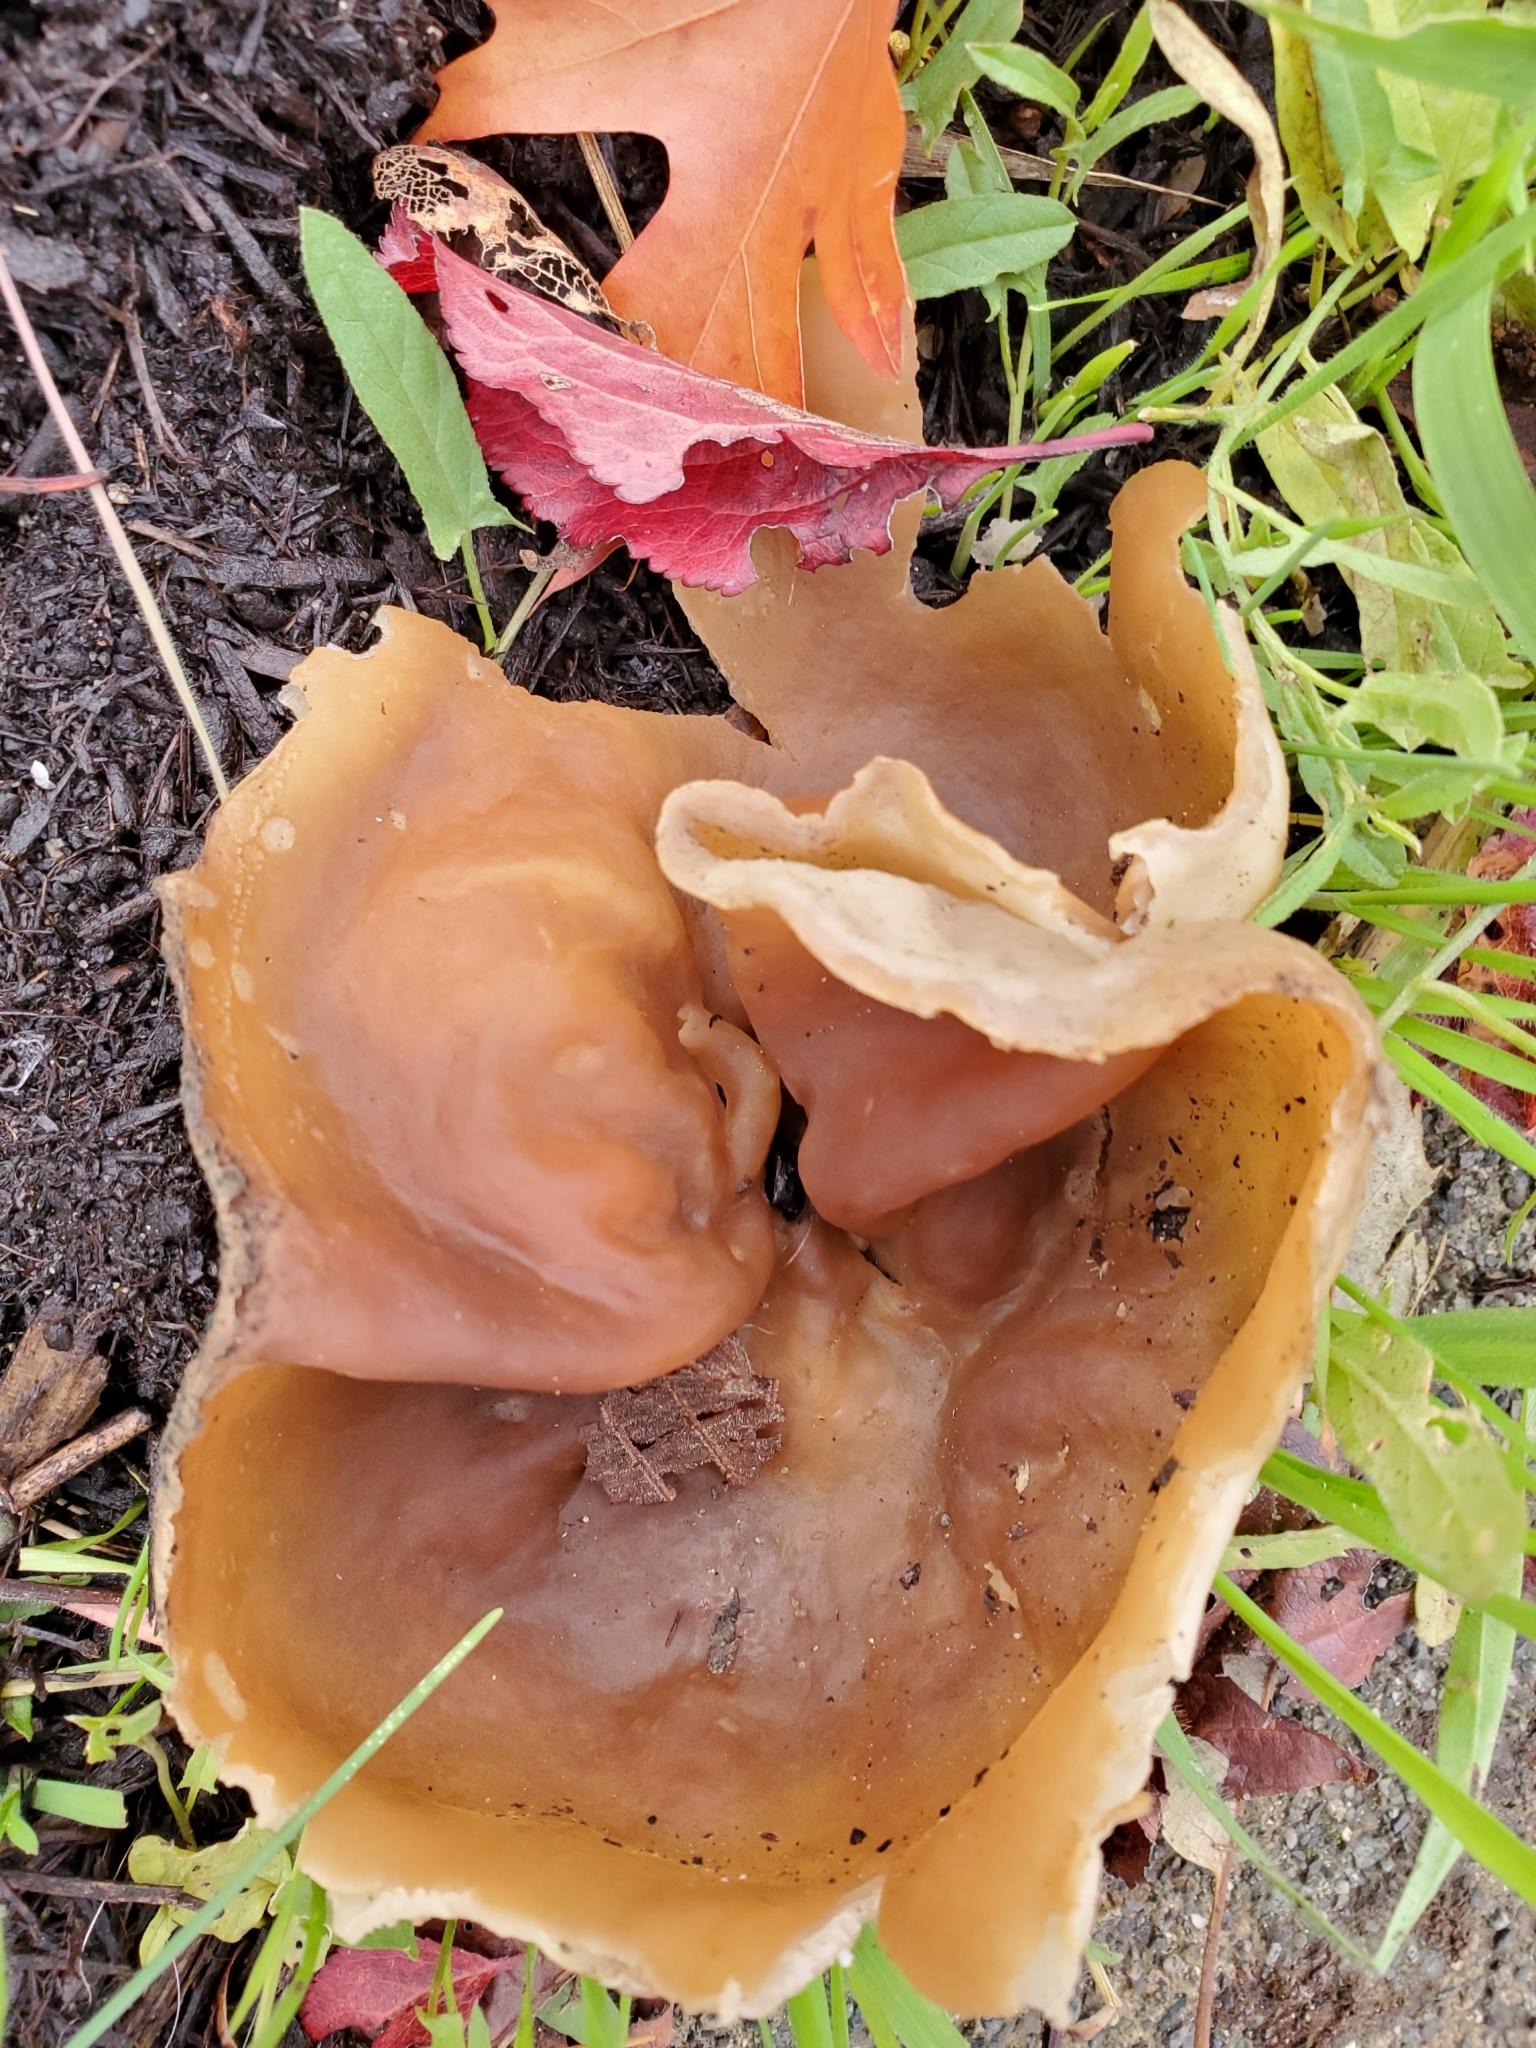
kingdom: Fungi
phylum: Ascomycota
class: Pezizomycetes
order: Pezizales
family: Pezizaceae
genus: Peziza
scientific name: Peziza varia
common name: Layered cup
